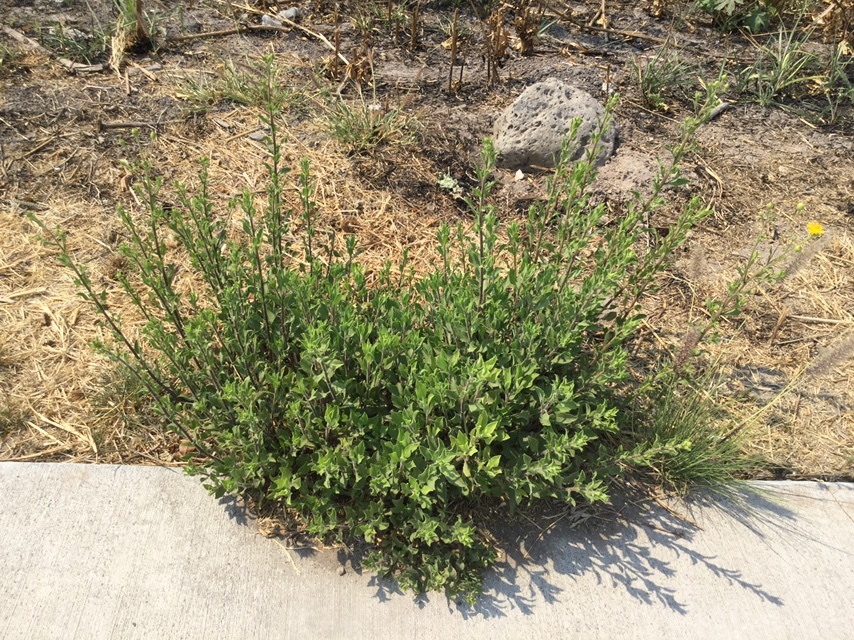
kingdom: Plantae
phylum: Tracheophyta
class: Magnoliopsida
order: Asterales
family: Asteraceae
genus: Heterotheca
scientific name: Heterotheca inuloides
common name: False arnica
